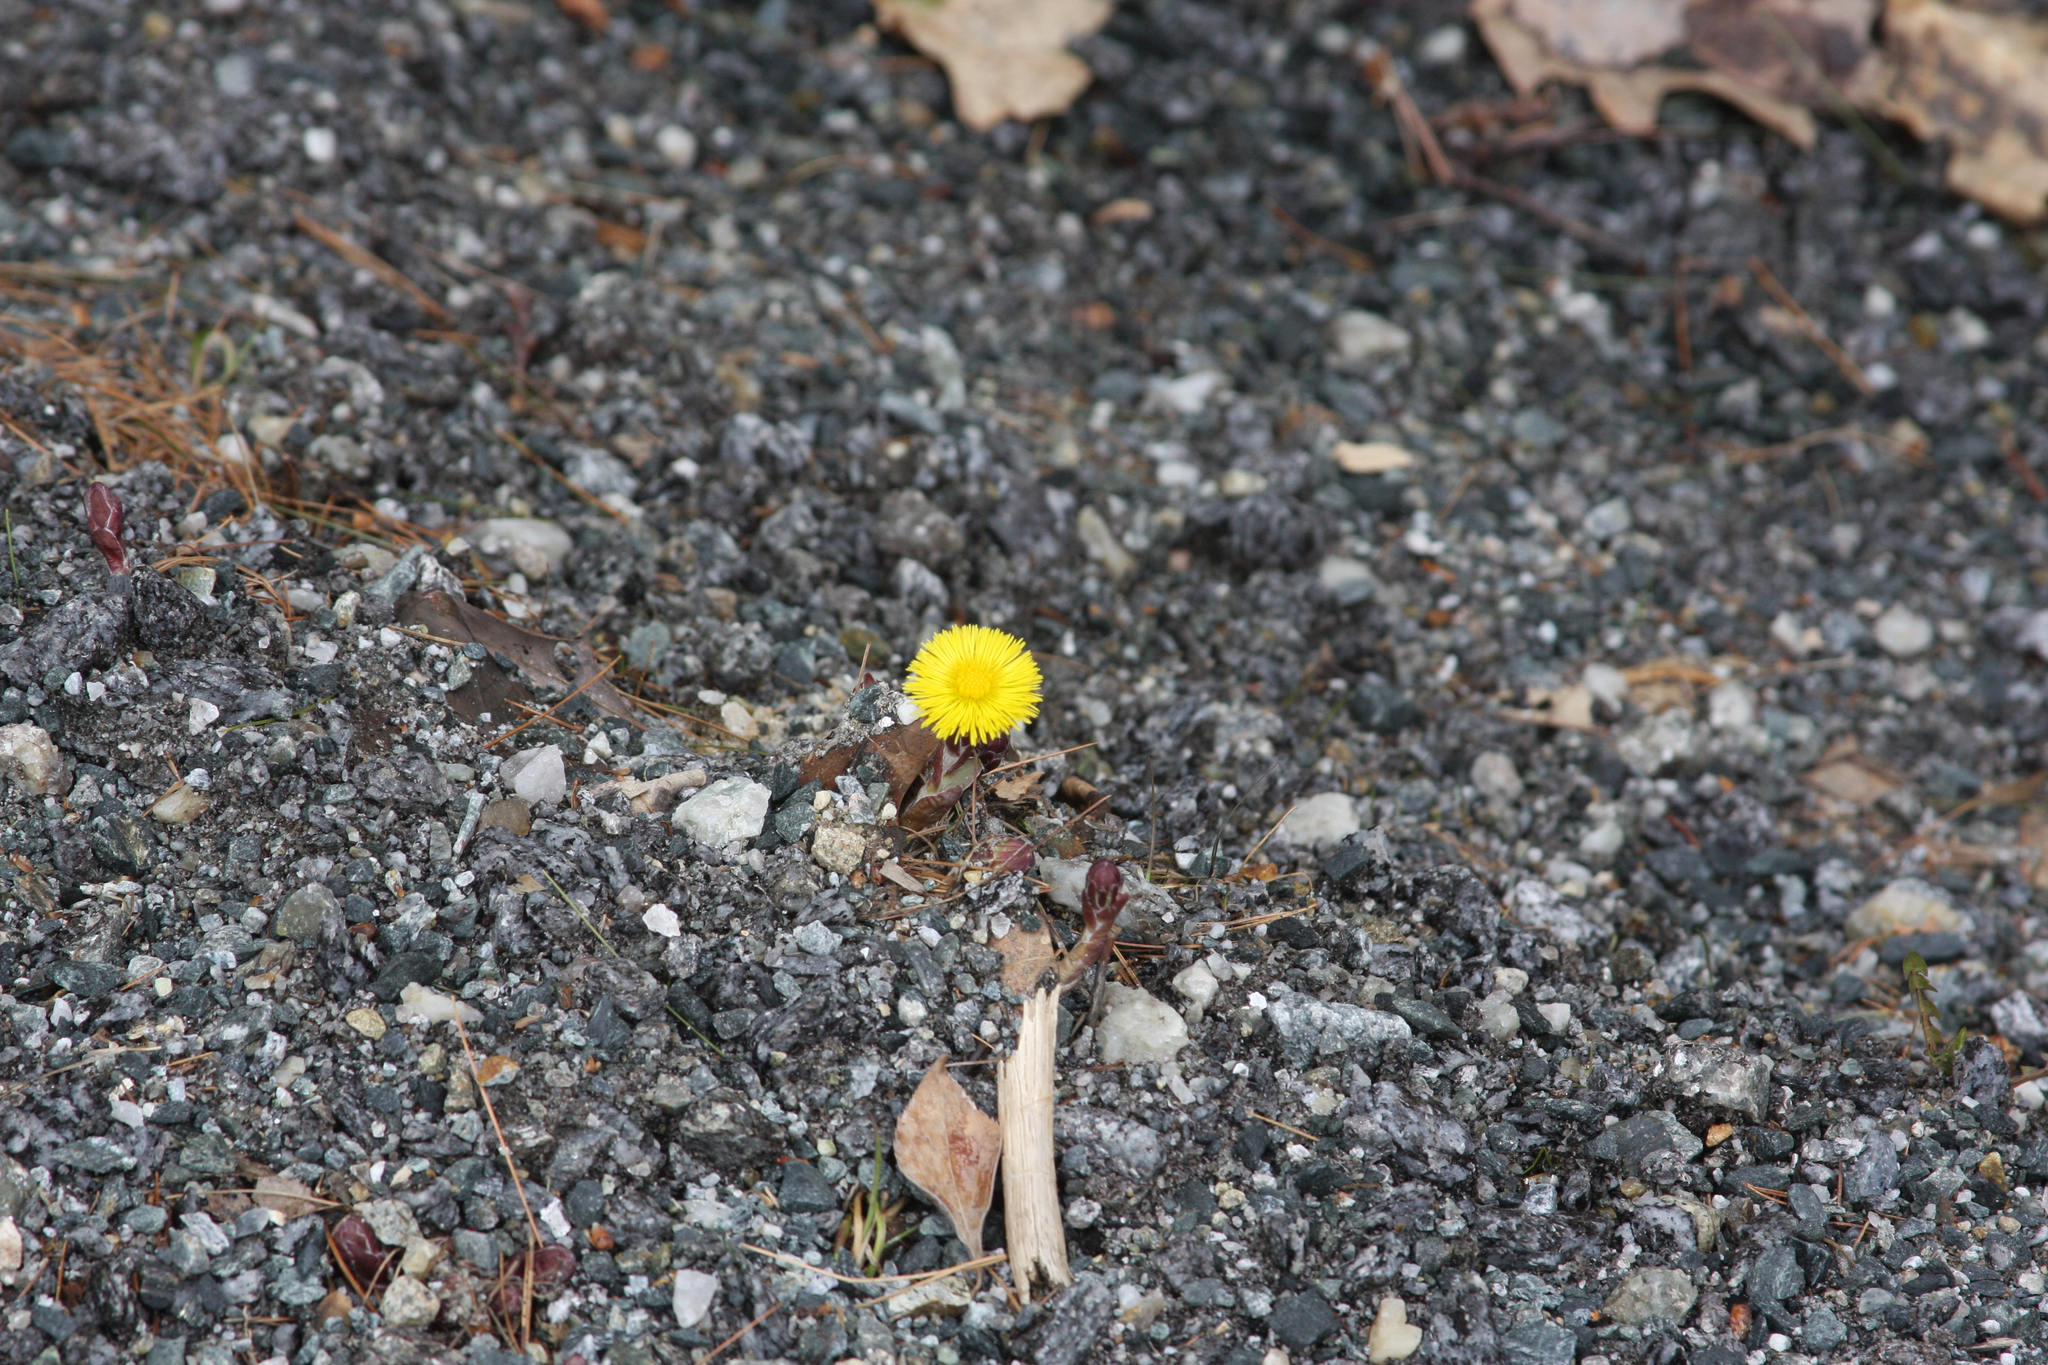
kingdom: Plantae
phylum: Tracheophyta
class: Magnoliopsida
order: Asterales
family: Asteraceae
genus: Tussilago
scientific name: Tussilago farfara
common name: Coltsfoot
